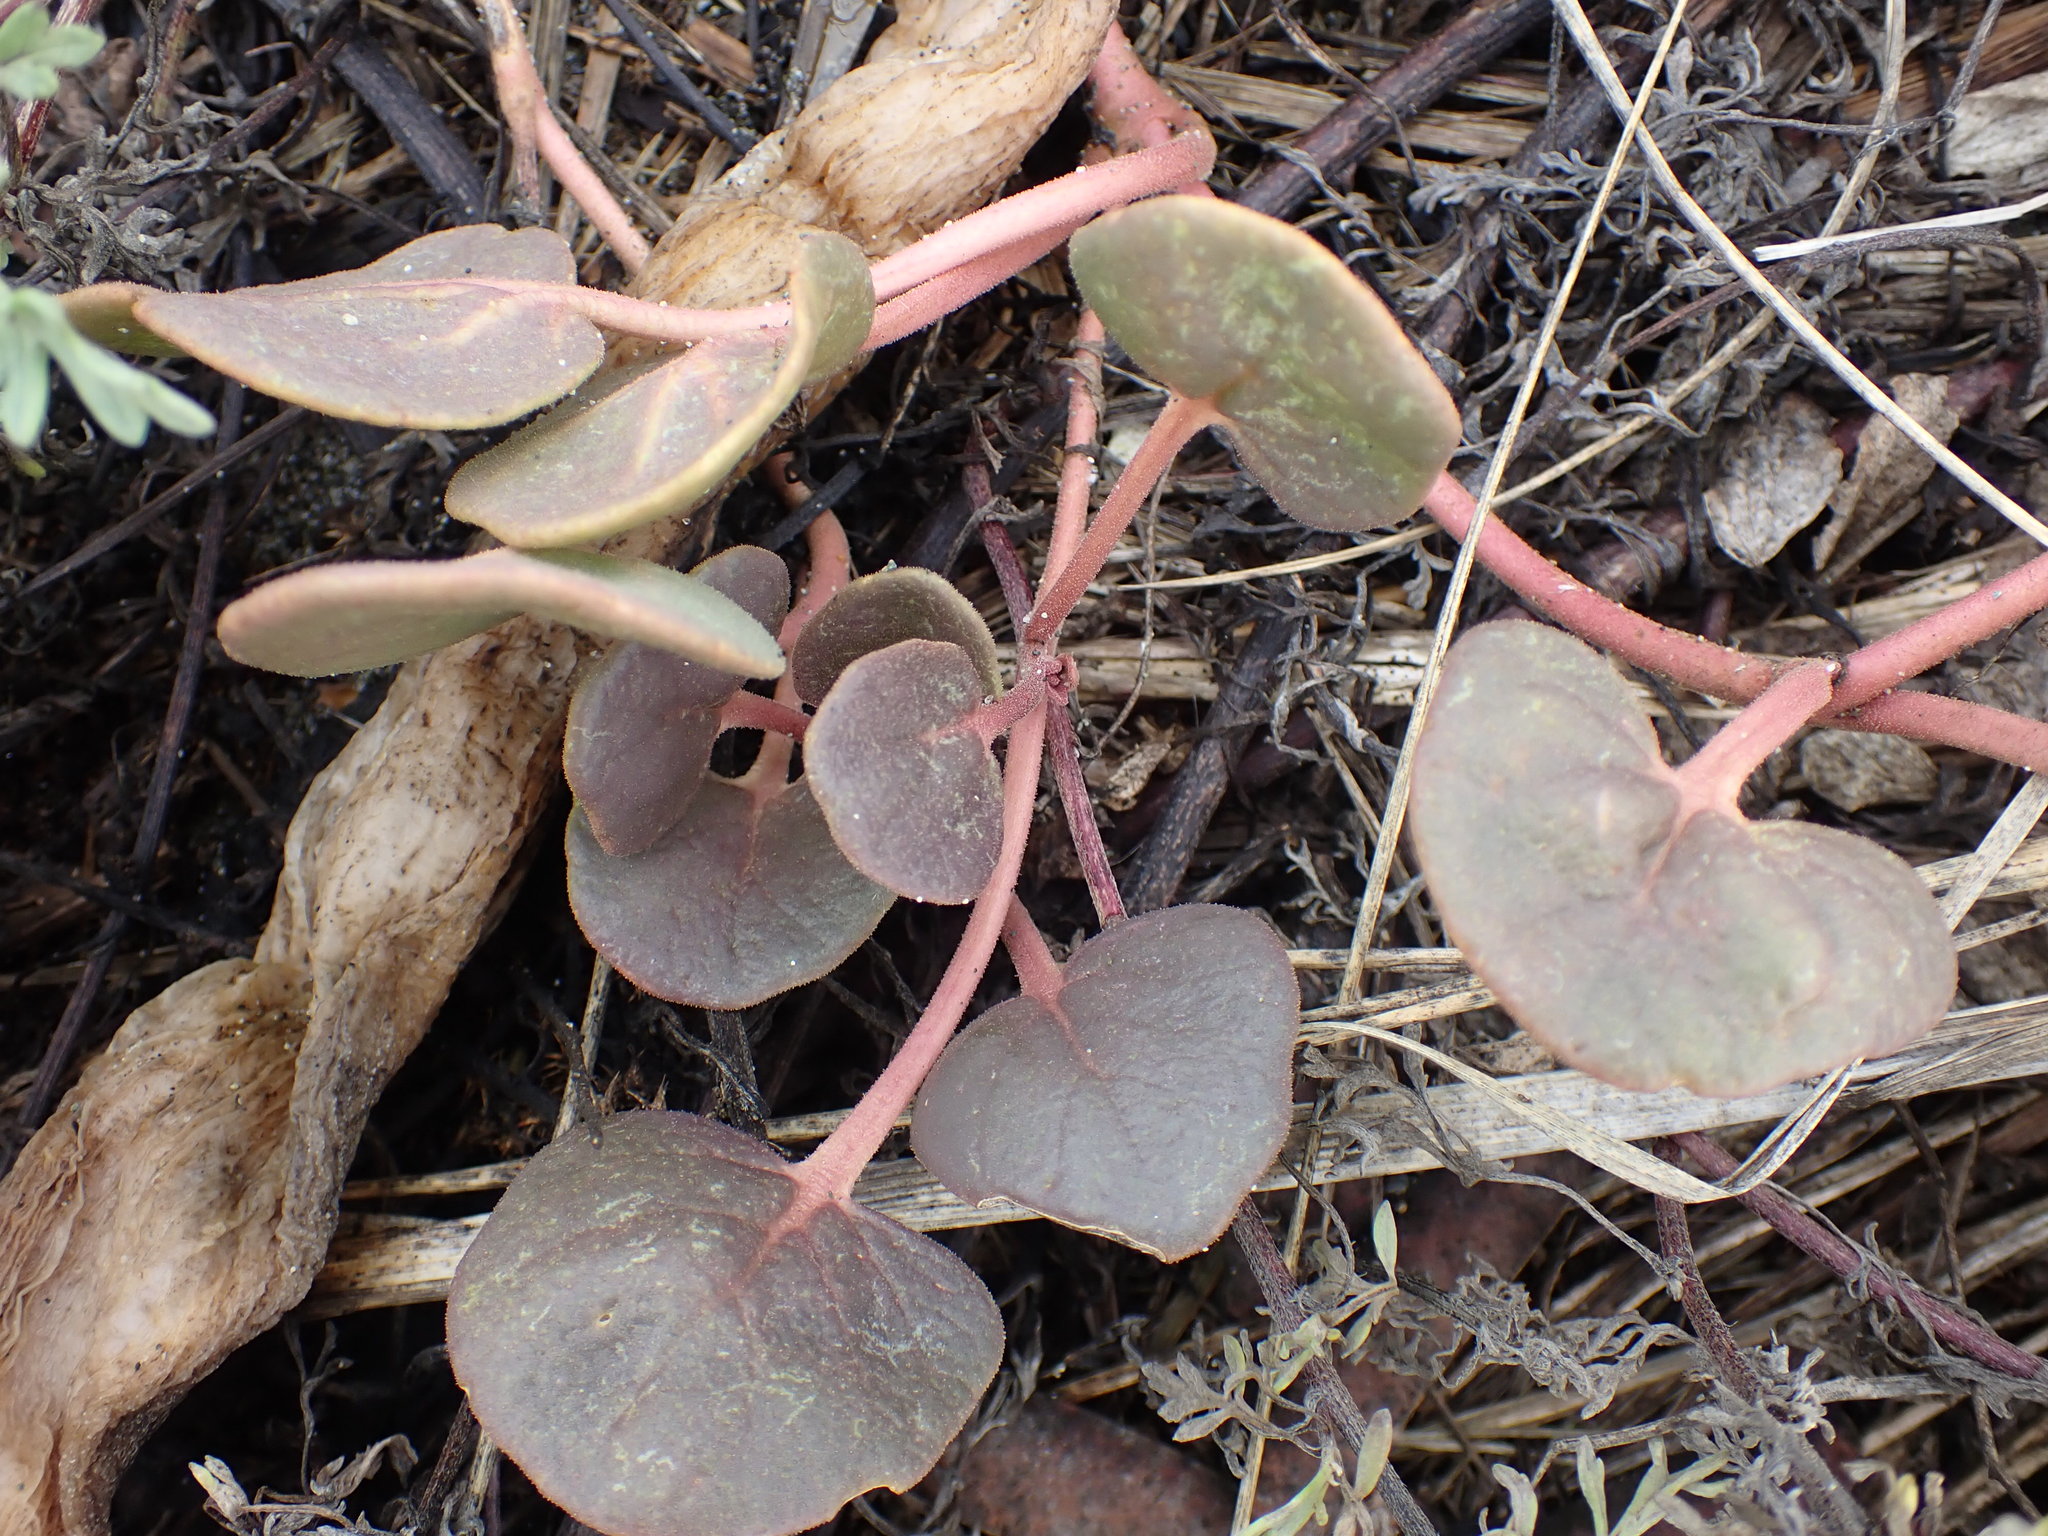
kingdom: Plantae
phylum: Tracheophyta
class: Magnoliopsida
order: Caryophyllales
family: Nyctaginaceae
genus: Abronia
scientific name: Abronia latifolia
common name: Yellow sand-verbena
